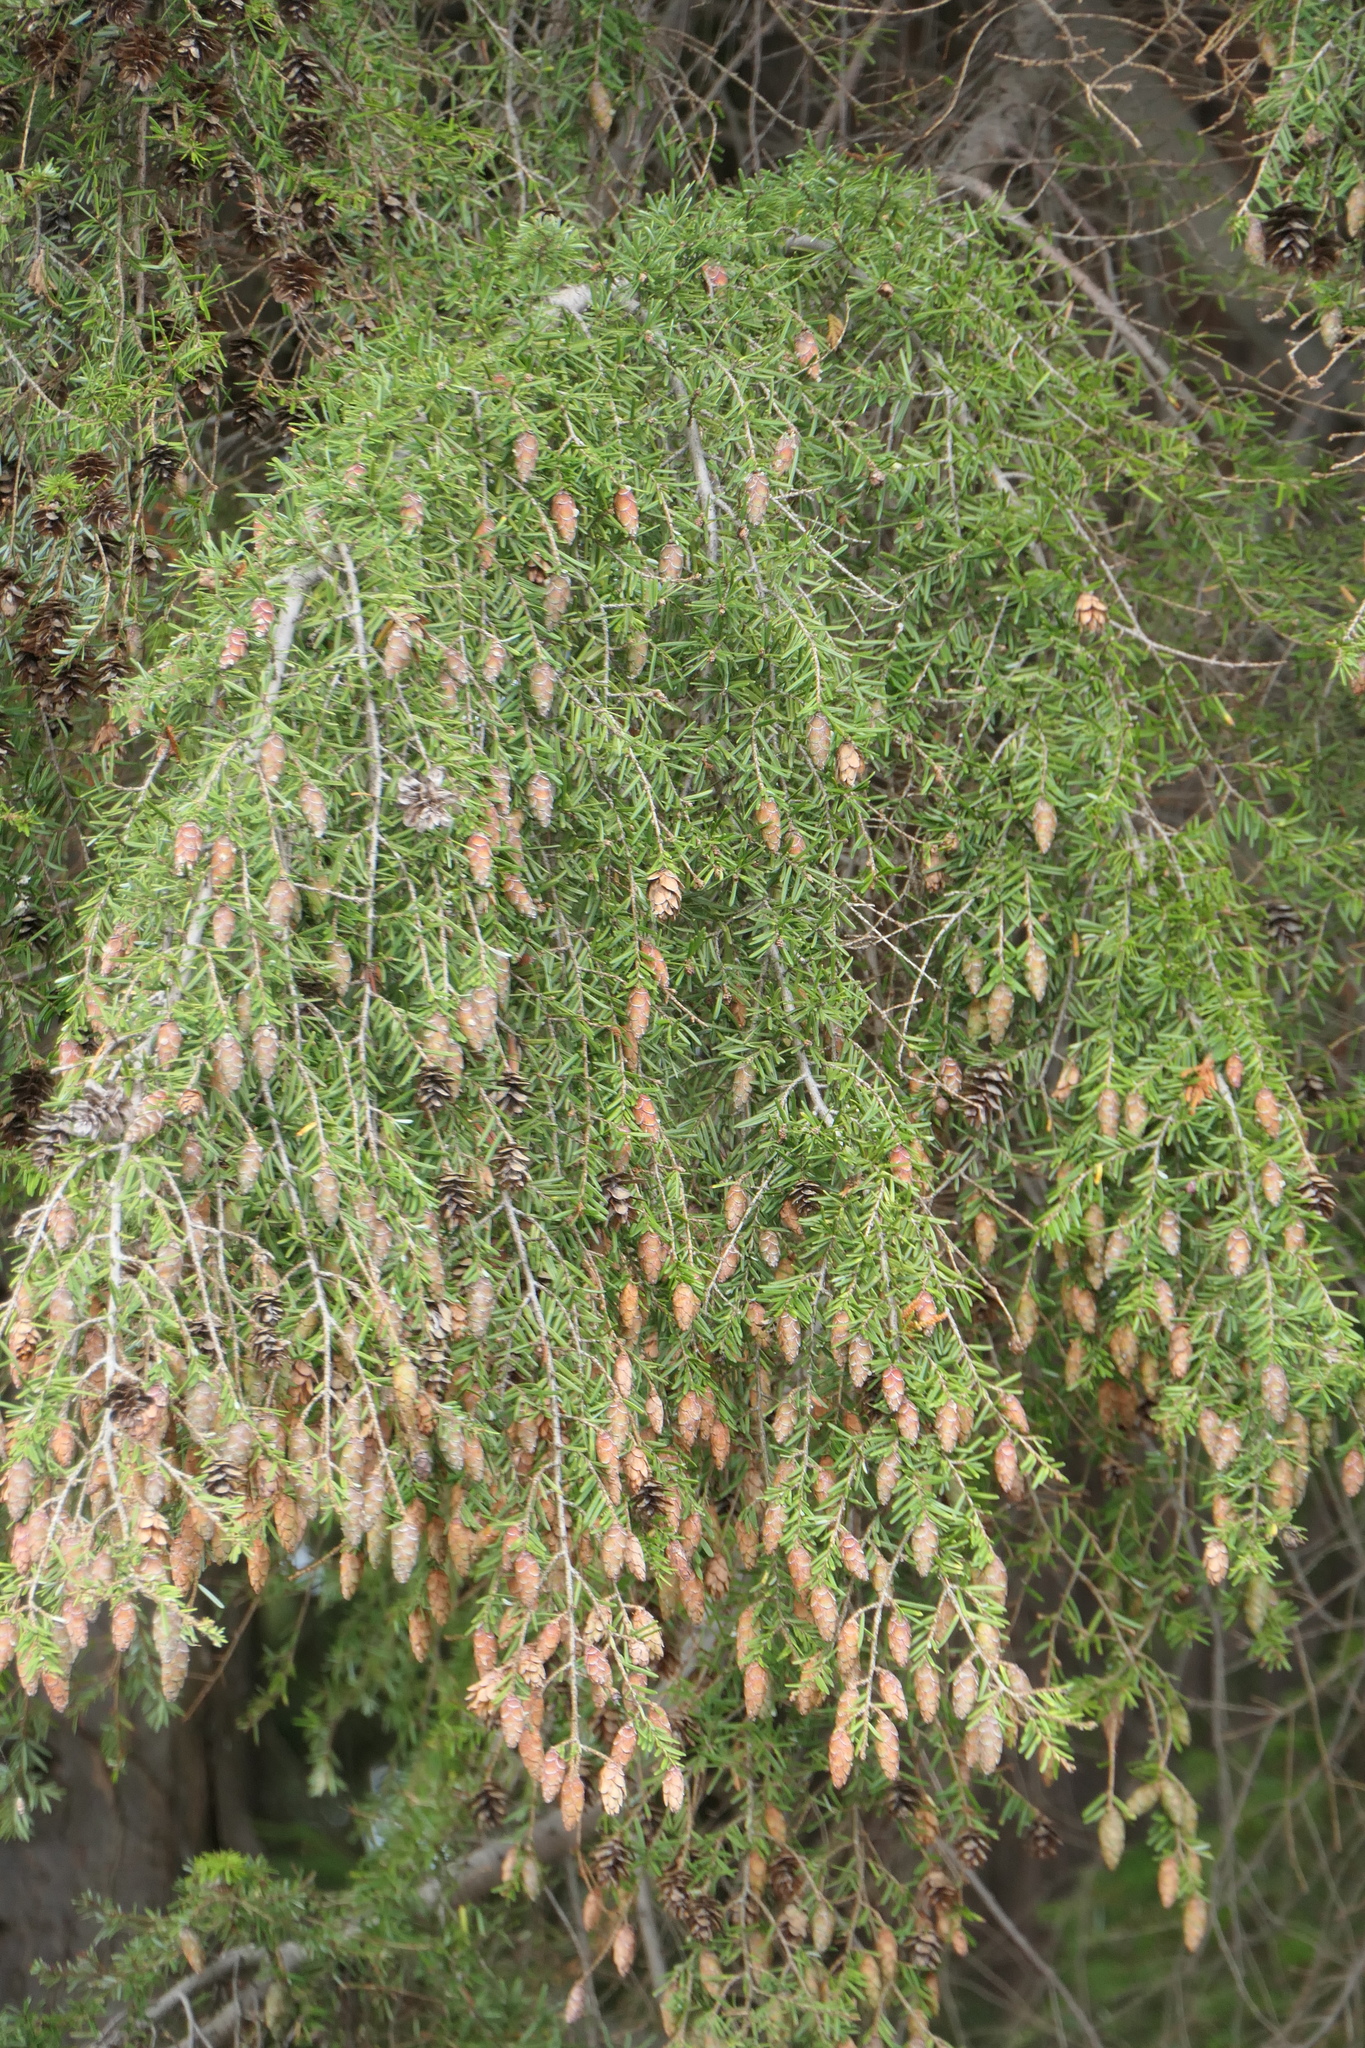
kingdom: Plantae
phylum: Tracheophyta
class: Pinopsida
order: Pinales
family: Pinaceae
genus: Tsuga
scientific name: Tsuga heterophylla
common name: Western hemlock
